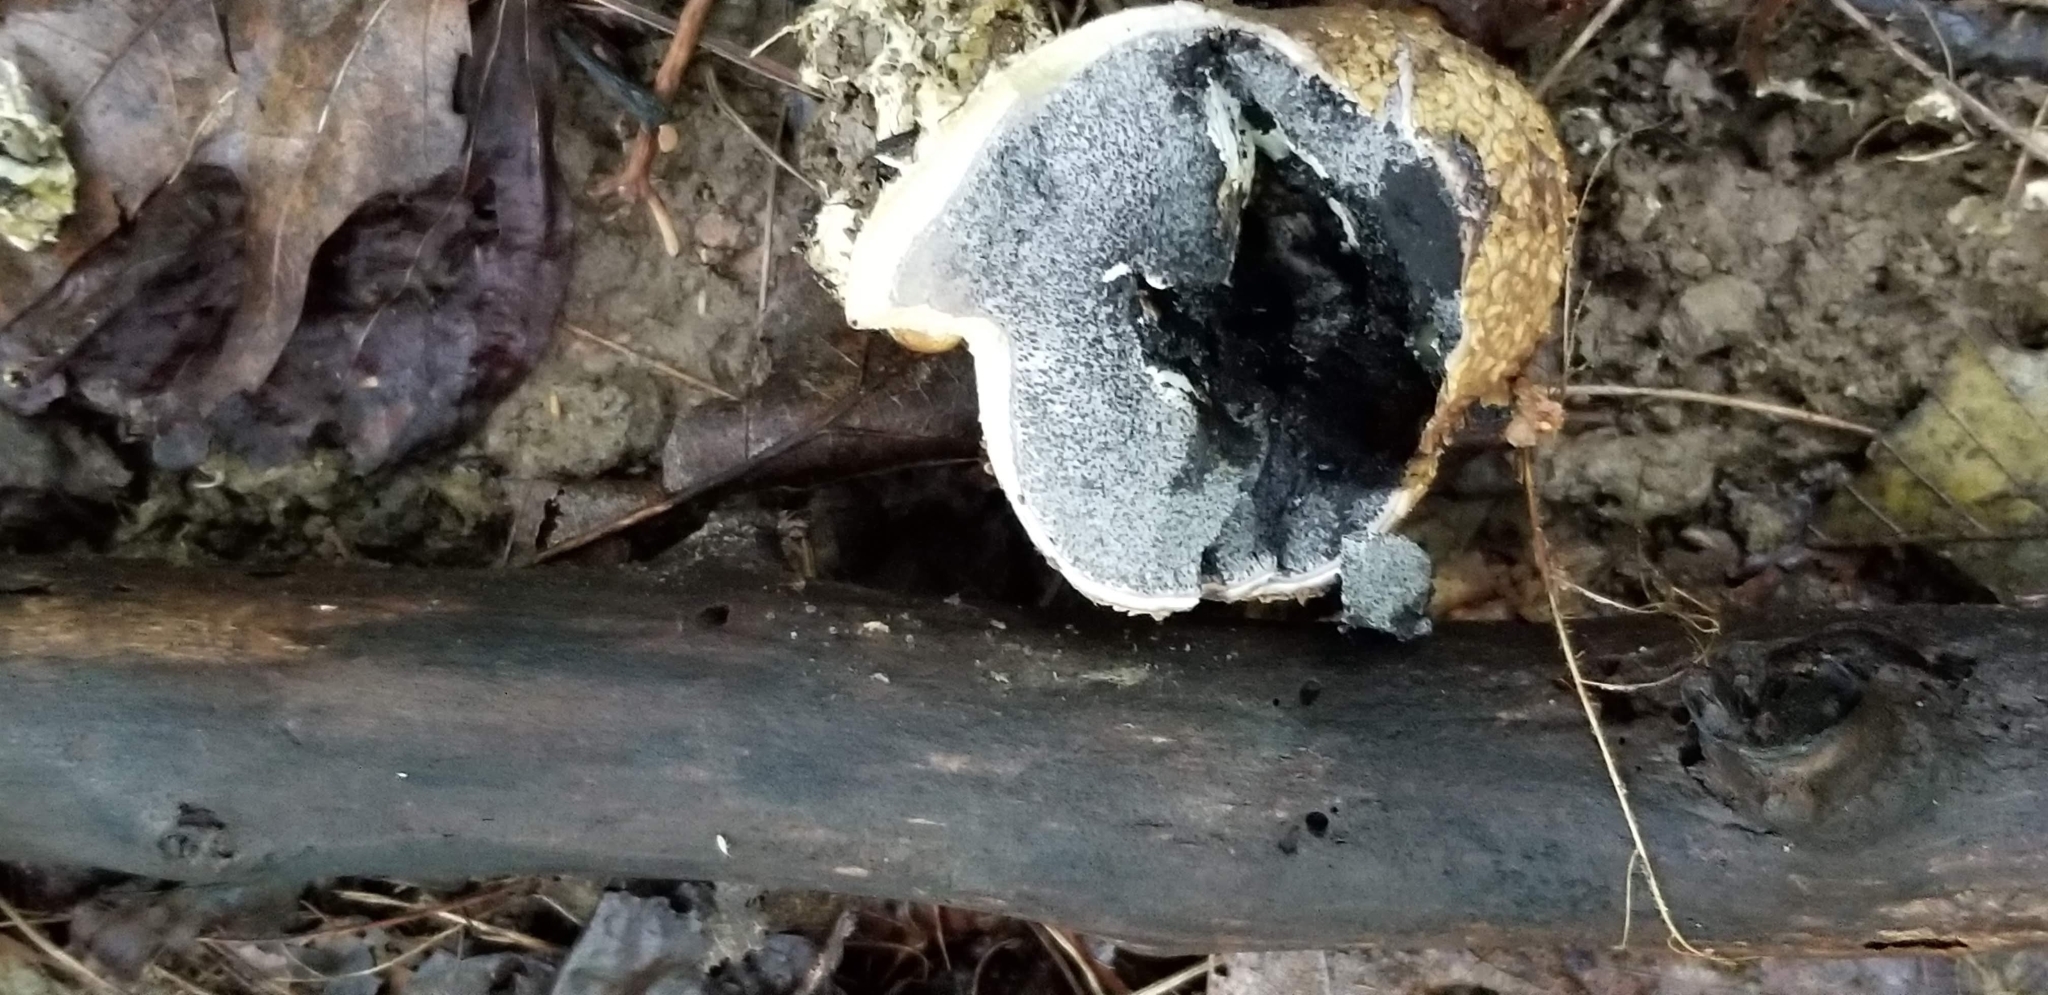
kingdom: Fungi
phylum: Basidiomycota
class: Agaricomycetes
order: Boletales
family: Sclerodermataceae
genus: Scleroderma
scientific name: Scleroderma citrinum
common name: Common earthball
